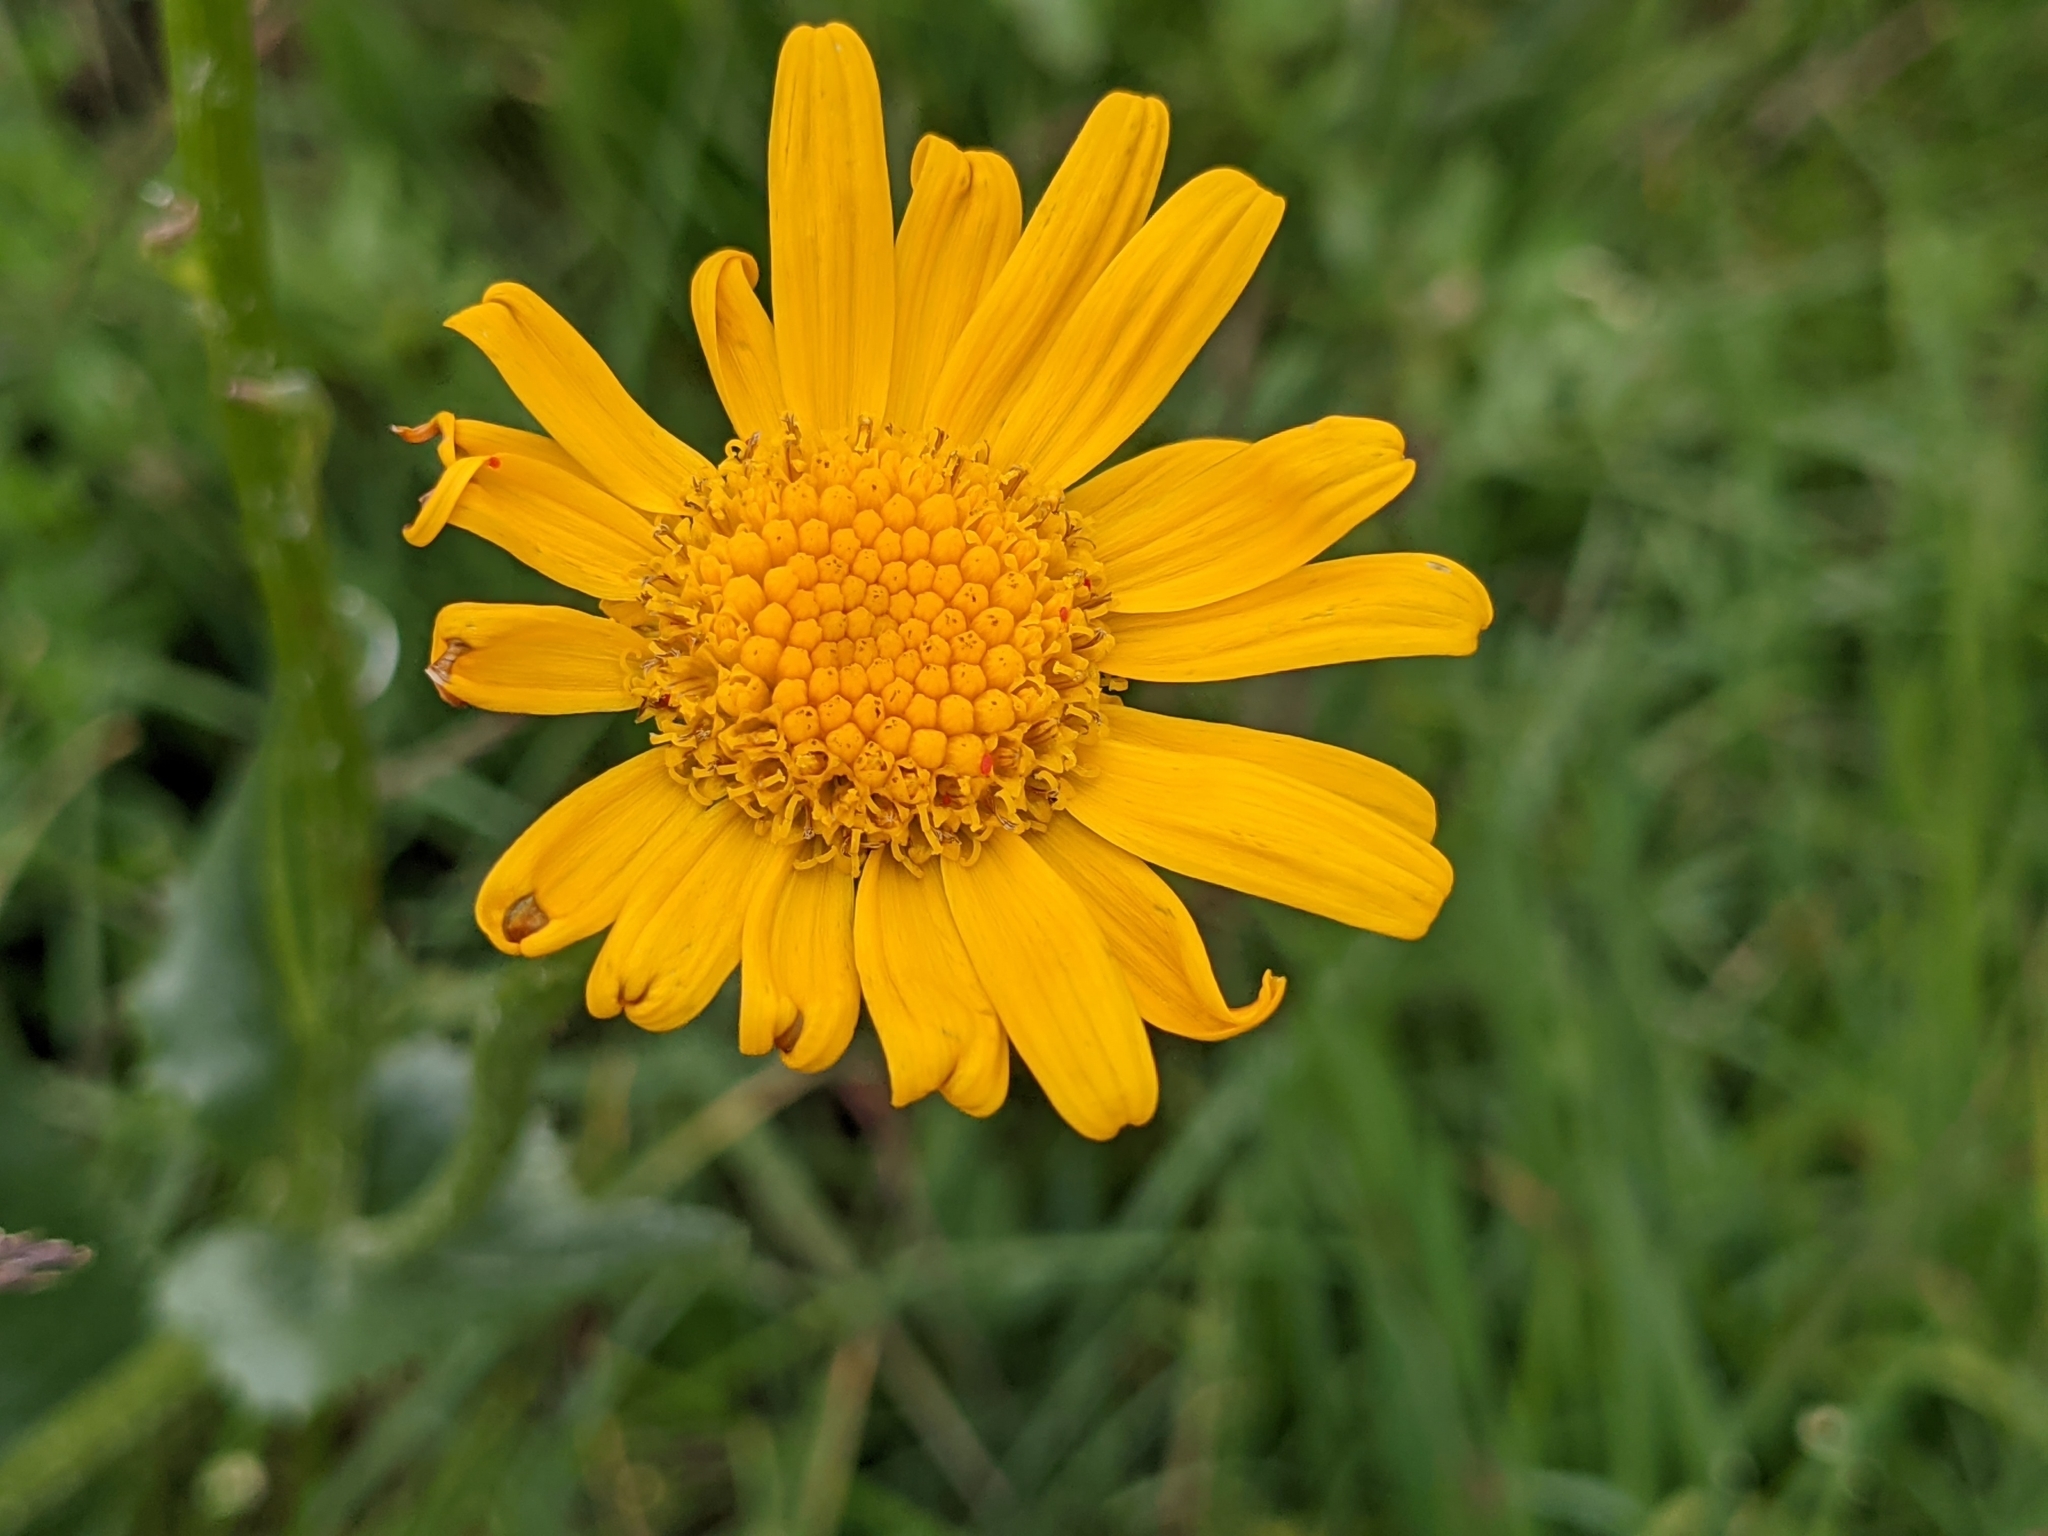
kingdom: Plantae
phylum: Tracheophyta
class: Magnoliopsida
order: Asterales
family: Asteraceae
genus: Senecio
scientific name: Senecio doronicum
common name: Chamois ragwort
